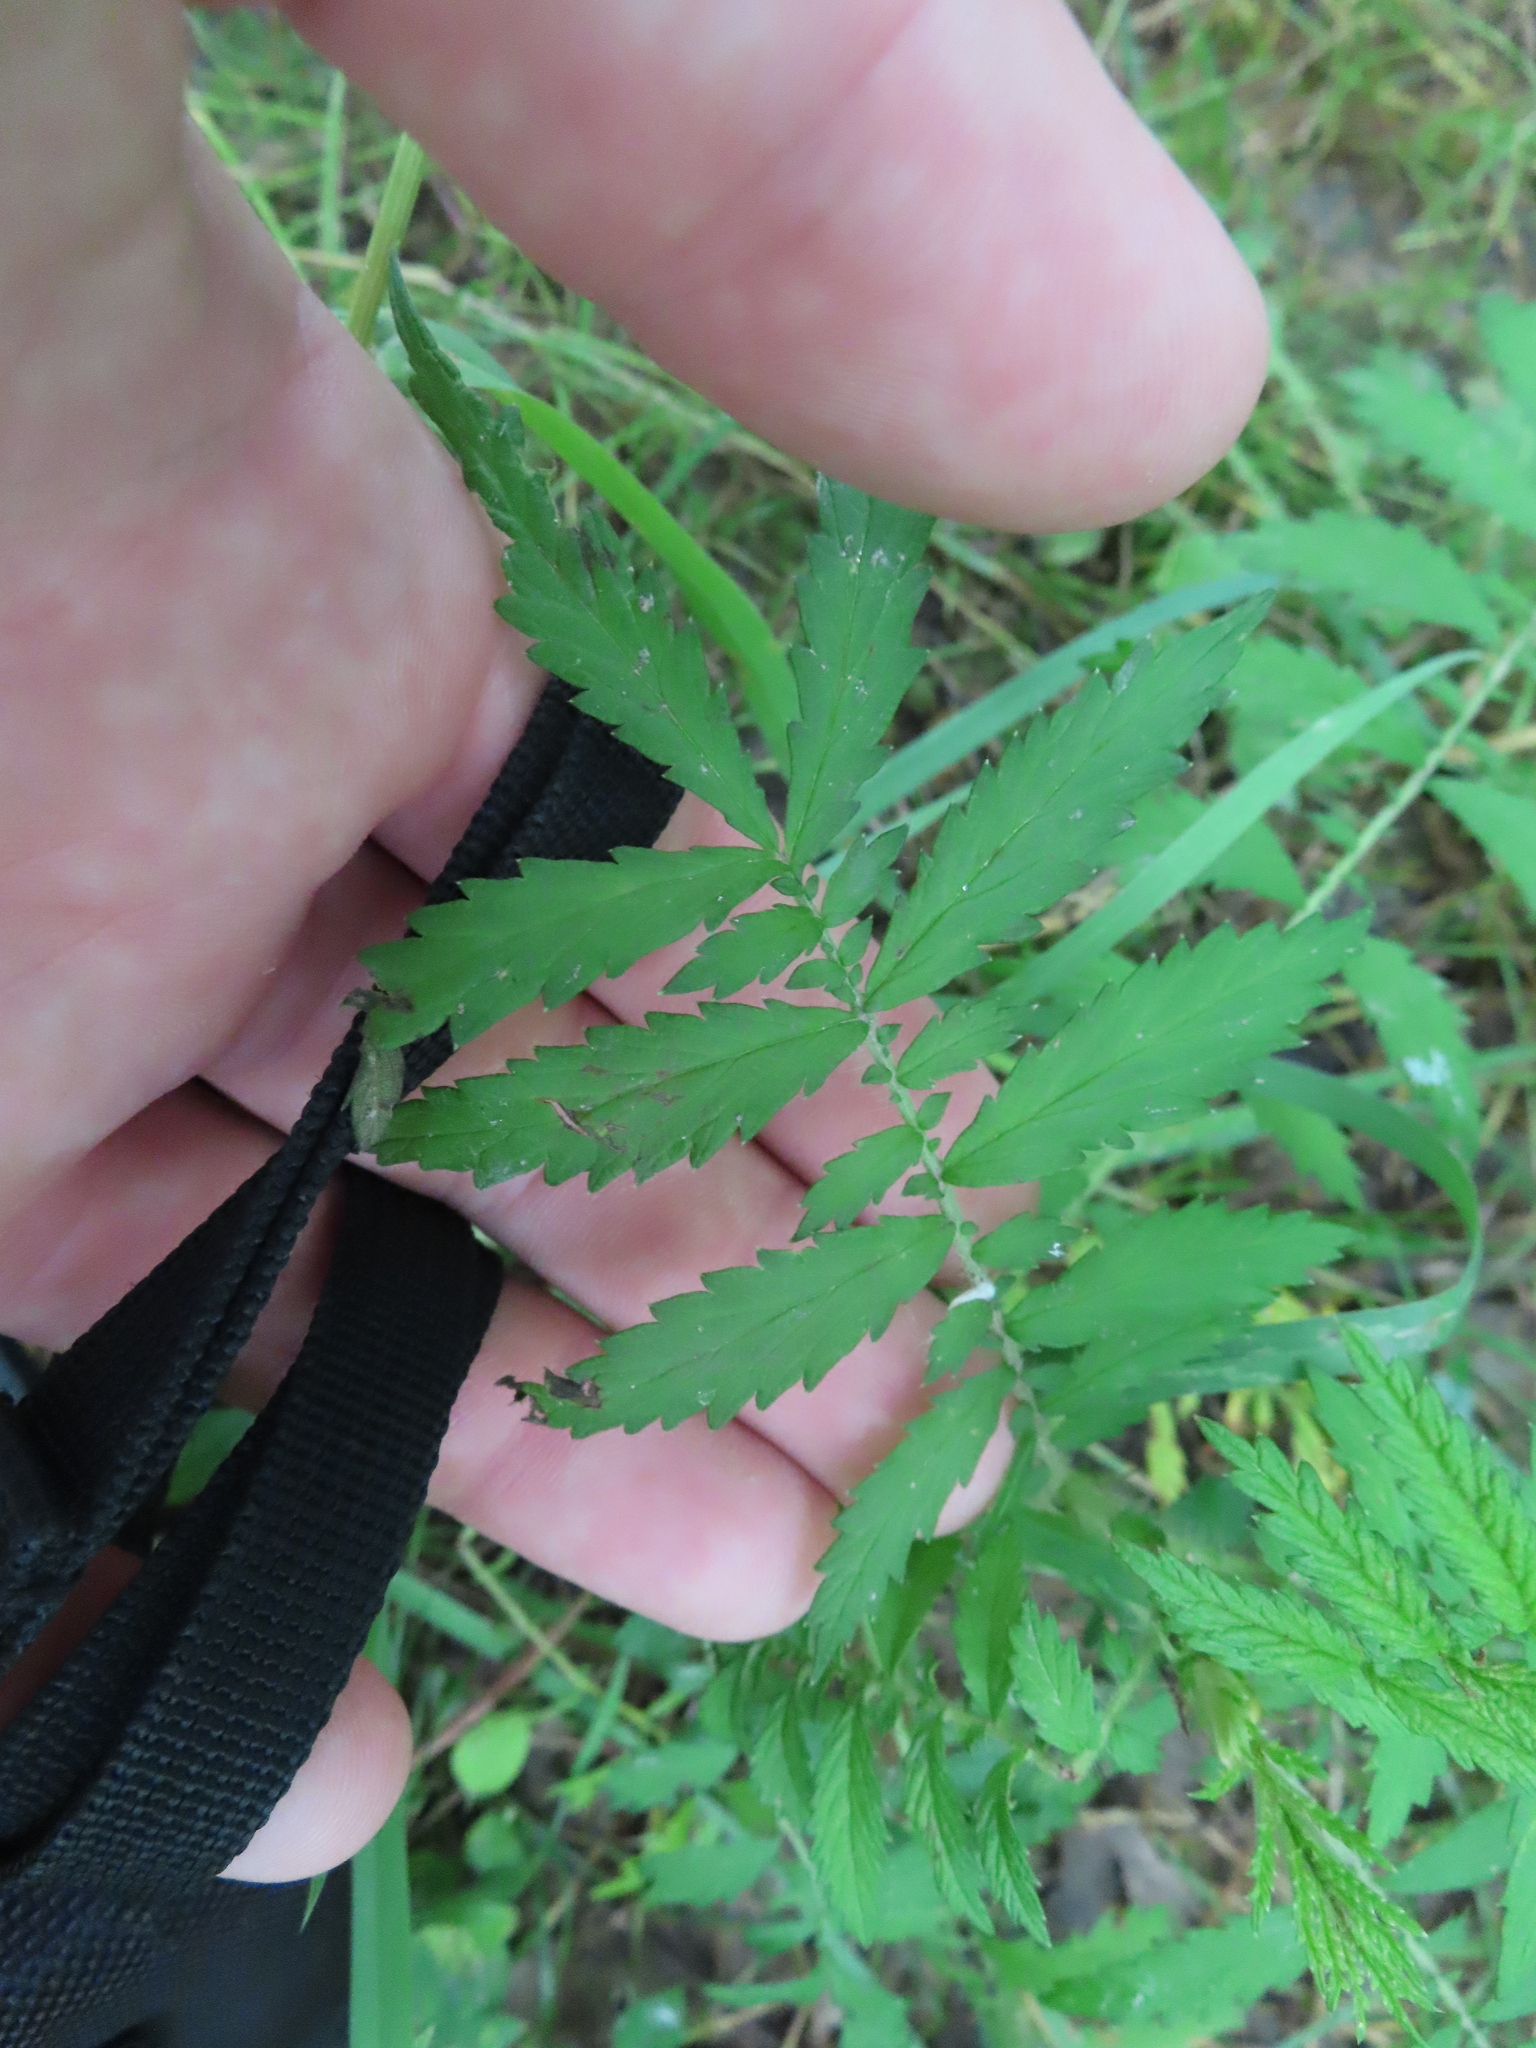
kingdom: Plantae
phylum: Tracheophyta
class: Magnoliopsida
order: Rosales
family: Rosaceae
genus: Agrimonia
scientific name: Agrimonia parviflora
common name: Harvest-lice
